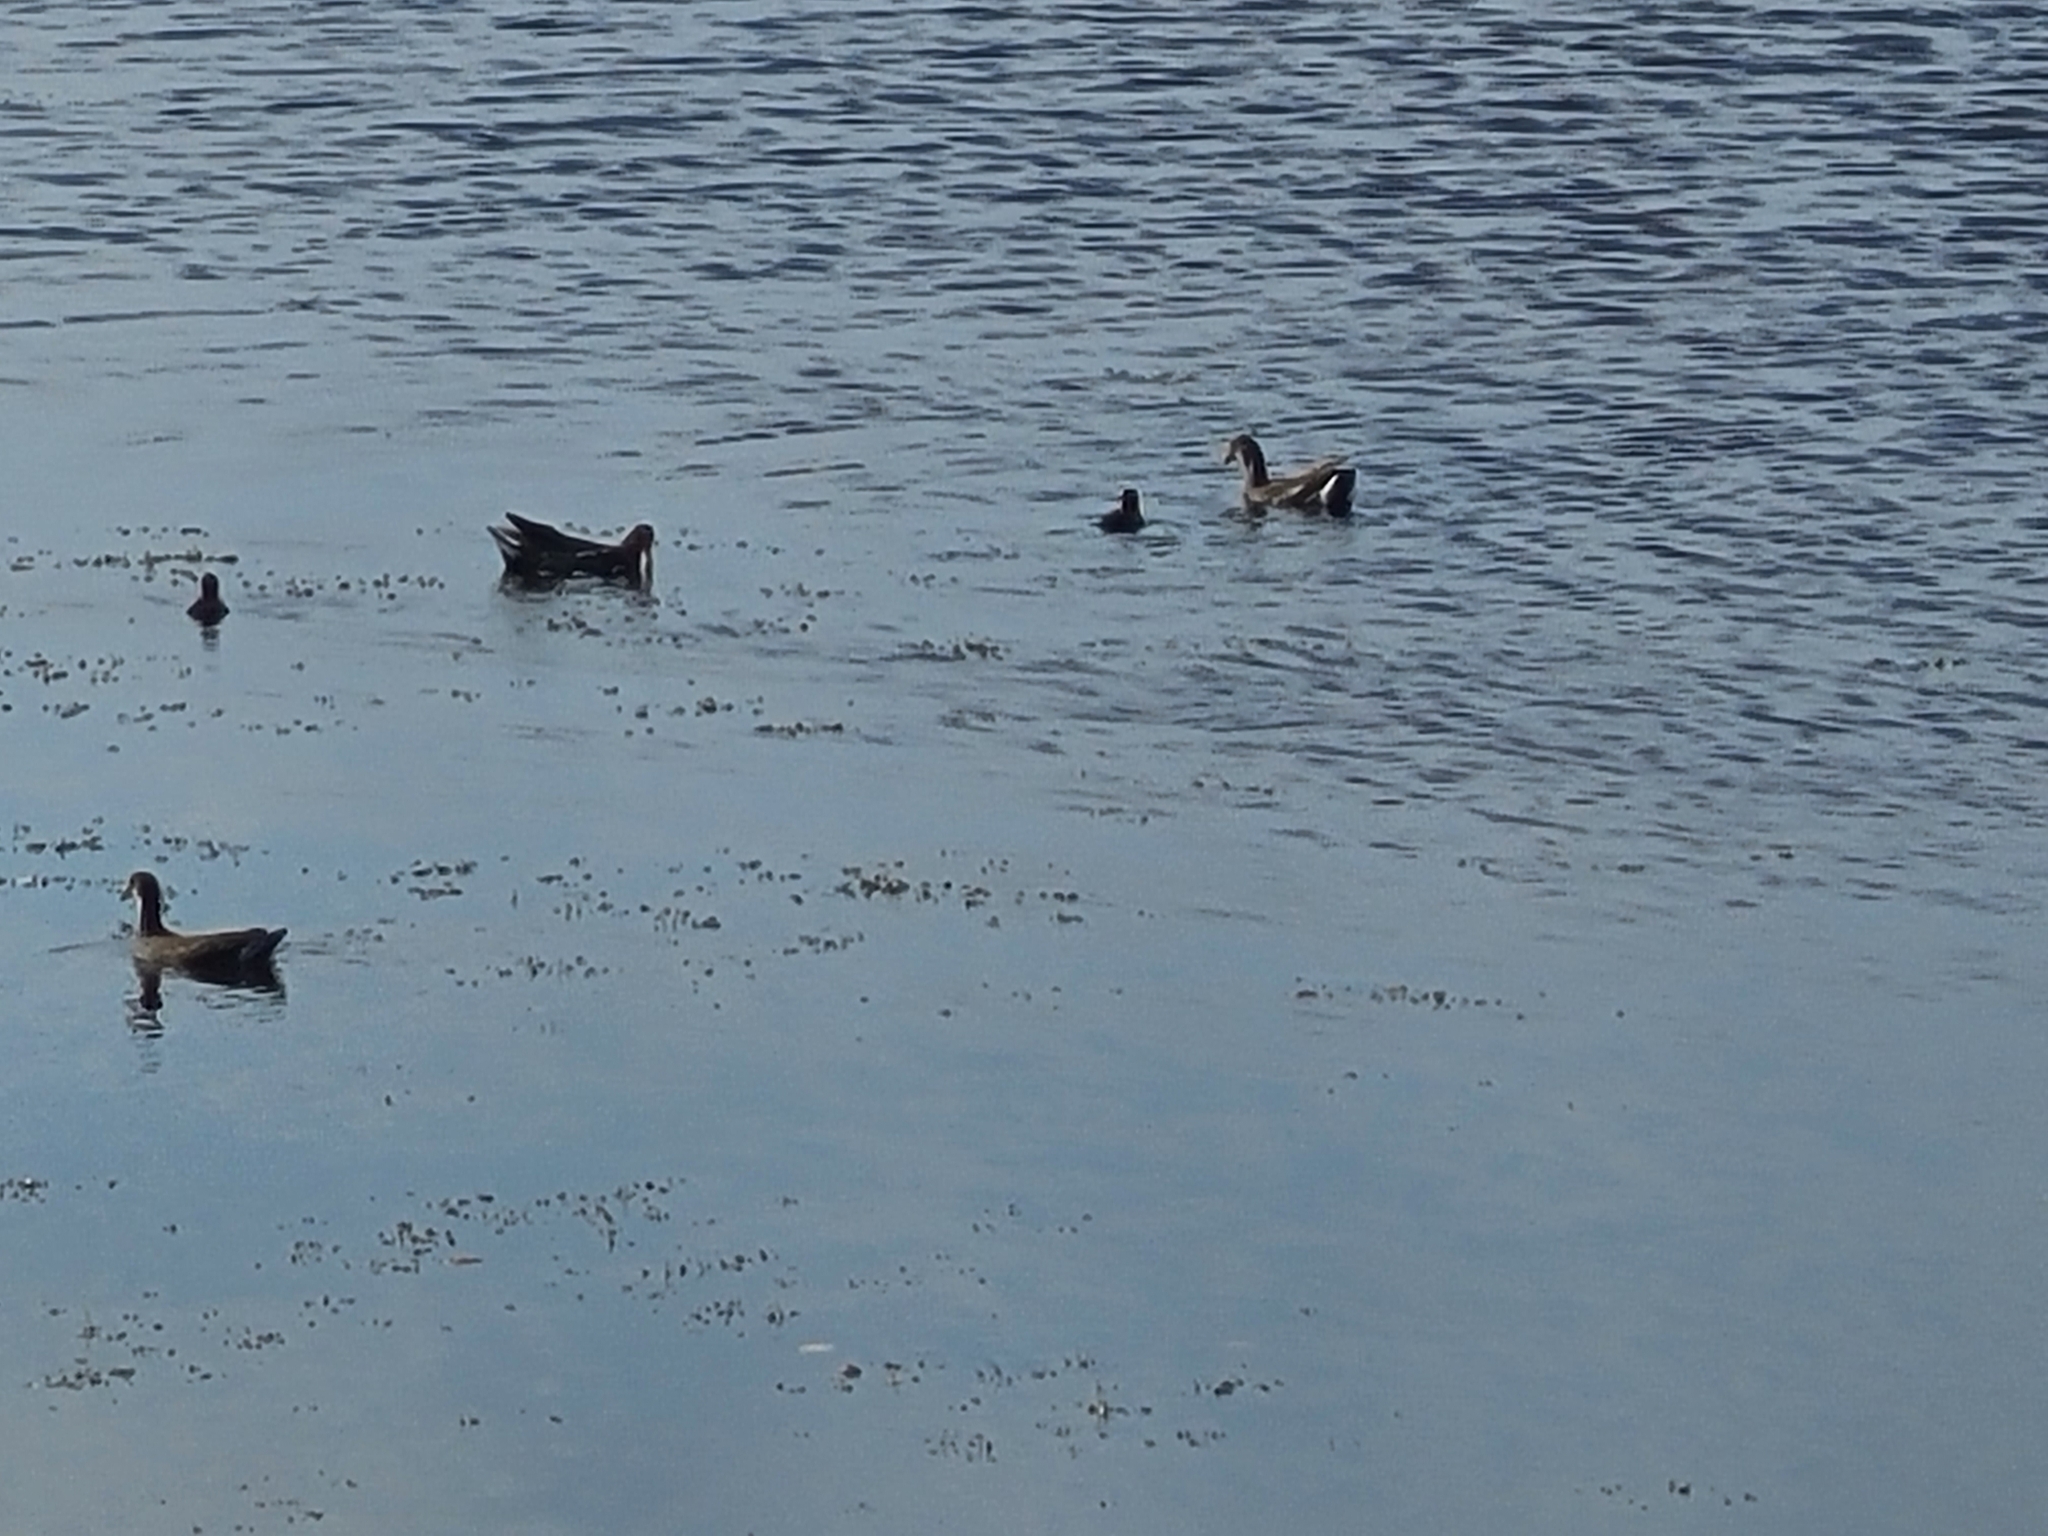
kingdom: Animalia
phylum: Chordata
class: Aves
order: Gruiformes
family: Rallidae
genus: Gallinula
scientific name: Gallinula chloropus
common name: Common moorhen
